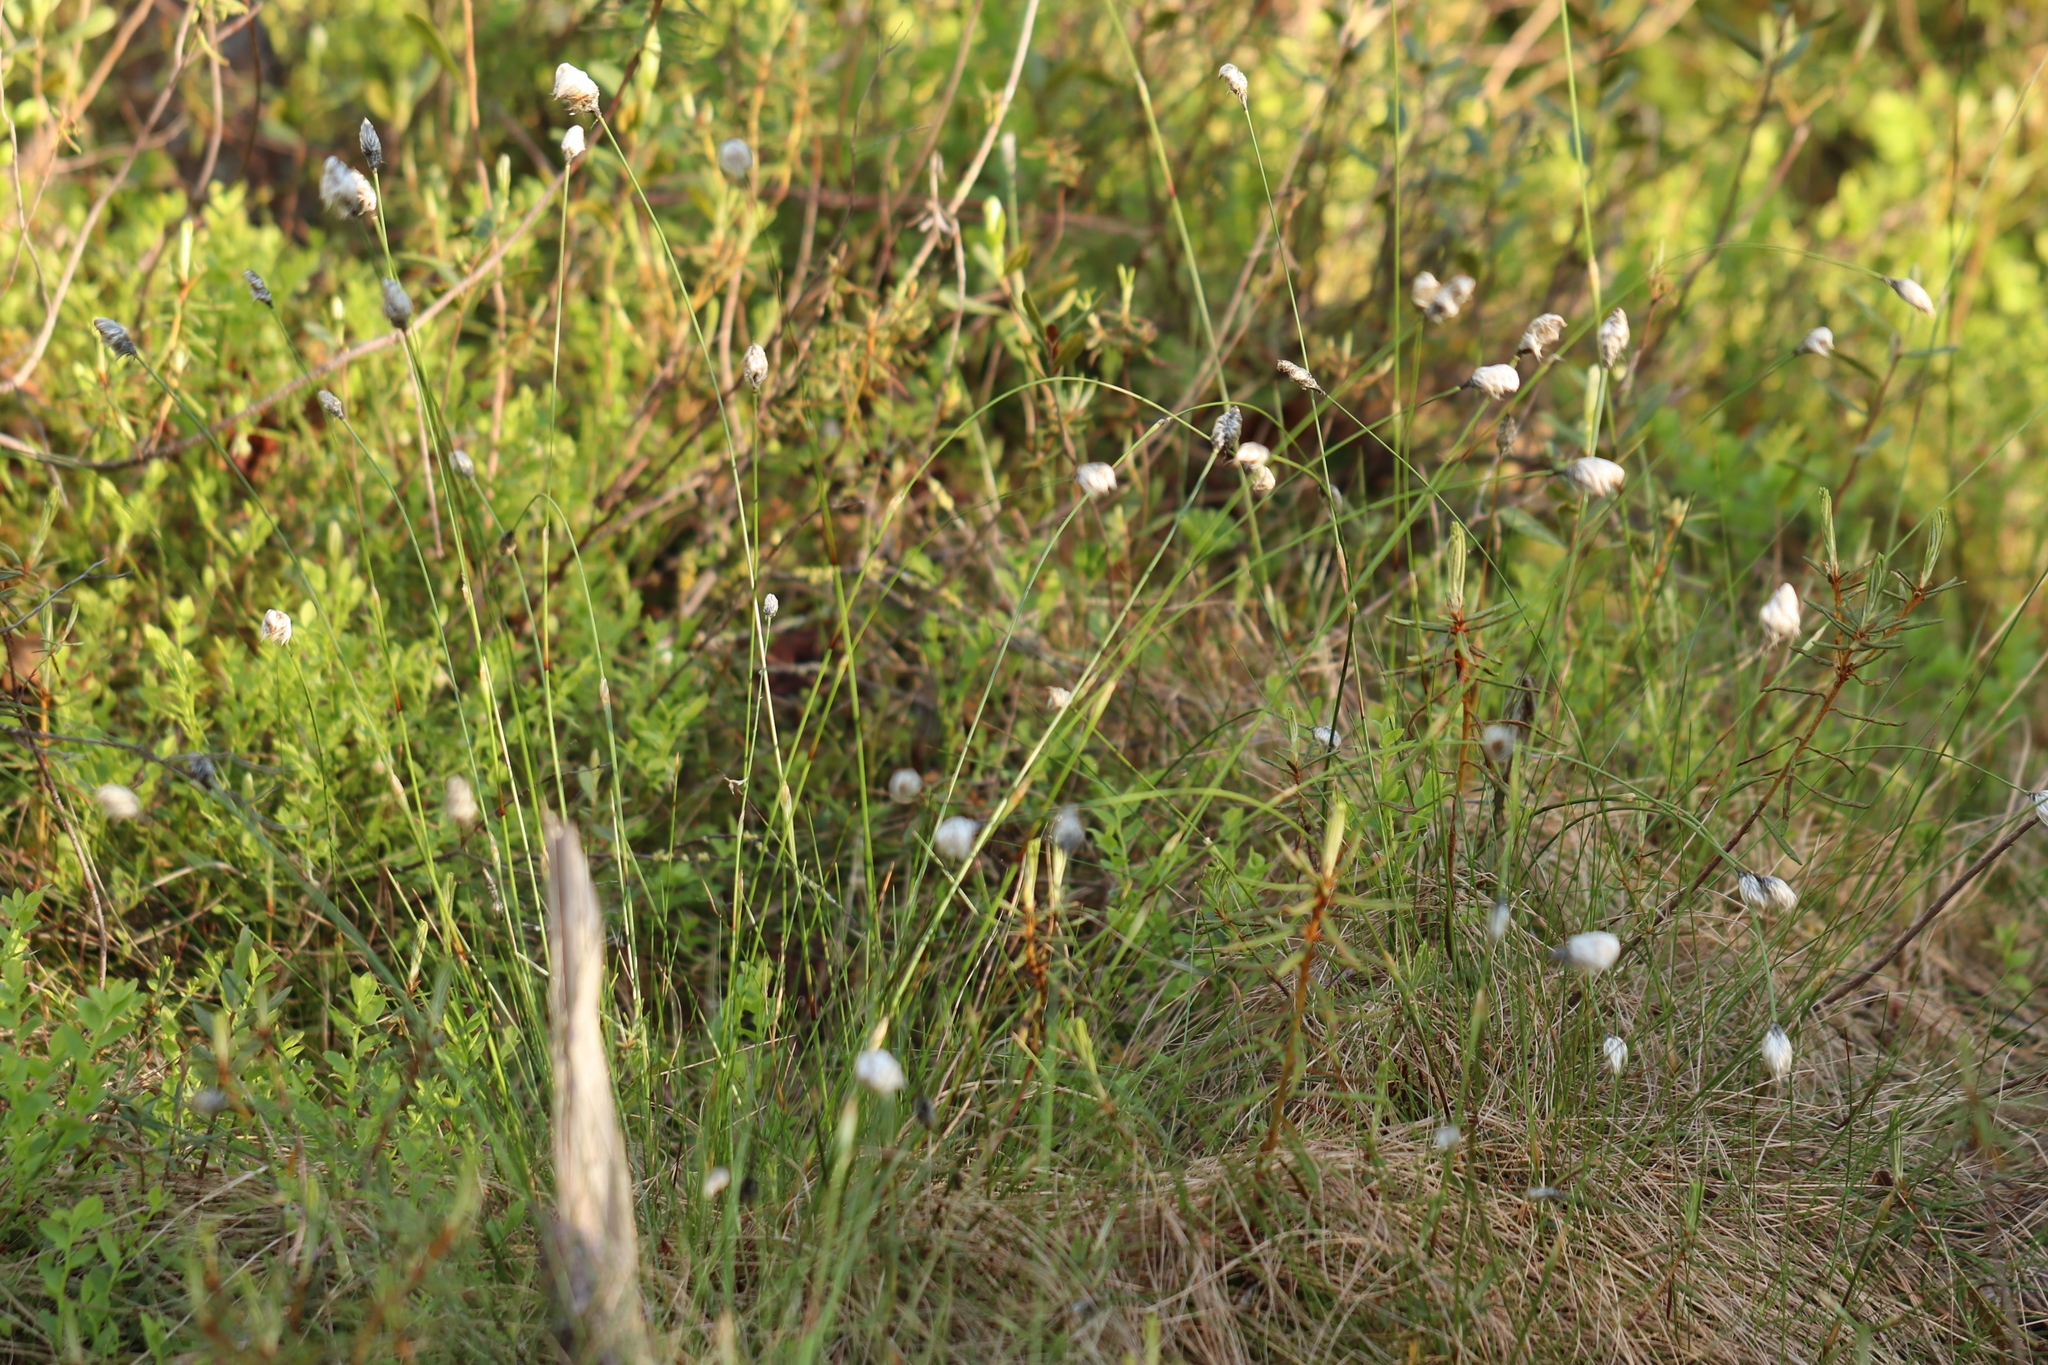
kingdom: Plantae
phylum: Tracheophyta
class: Liliopsida
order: Poales
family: Cyperaceae
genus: Eriophorum
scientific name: Eriophorum vaginatum
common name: Hare's-tail cottongrass
